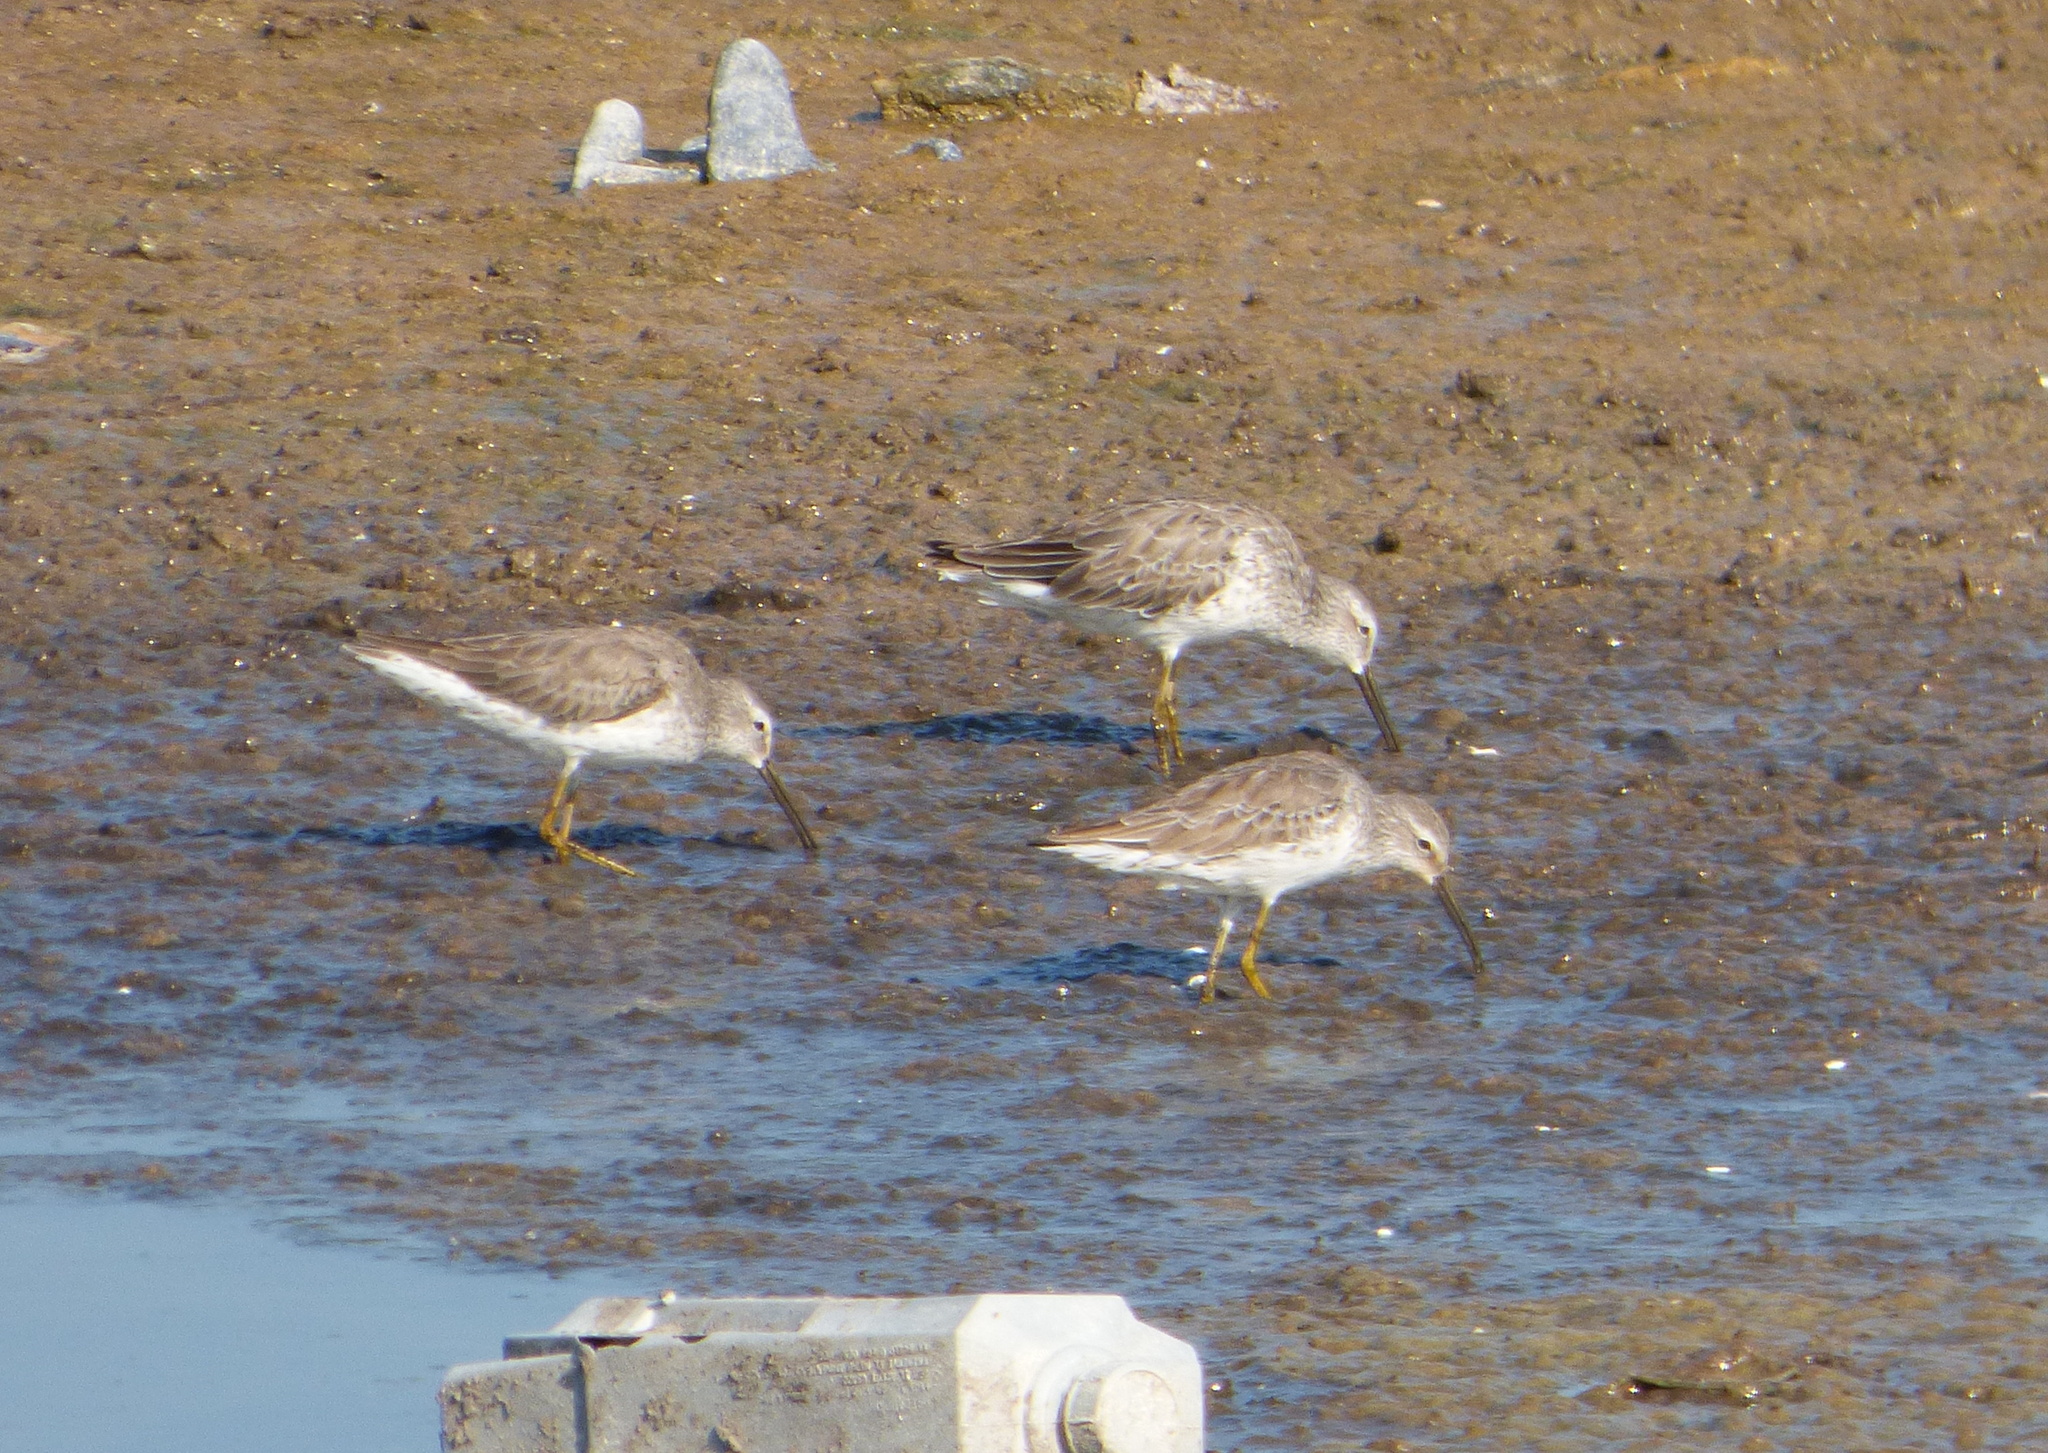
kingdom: Animalia
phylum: Chordata
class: Aves
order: Charadriiformes
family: Scolopacidae
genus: Calidris
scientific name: Calidris himantopus
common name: Stilt sandpiper
